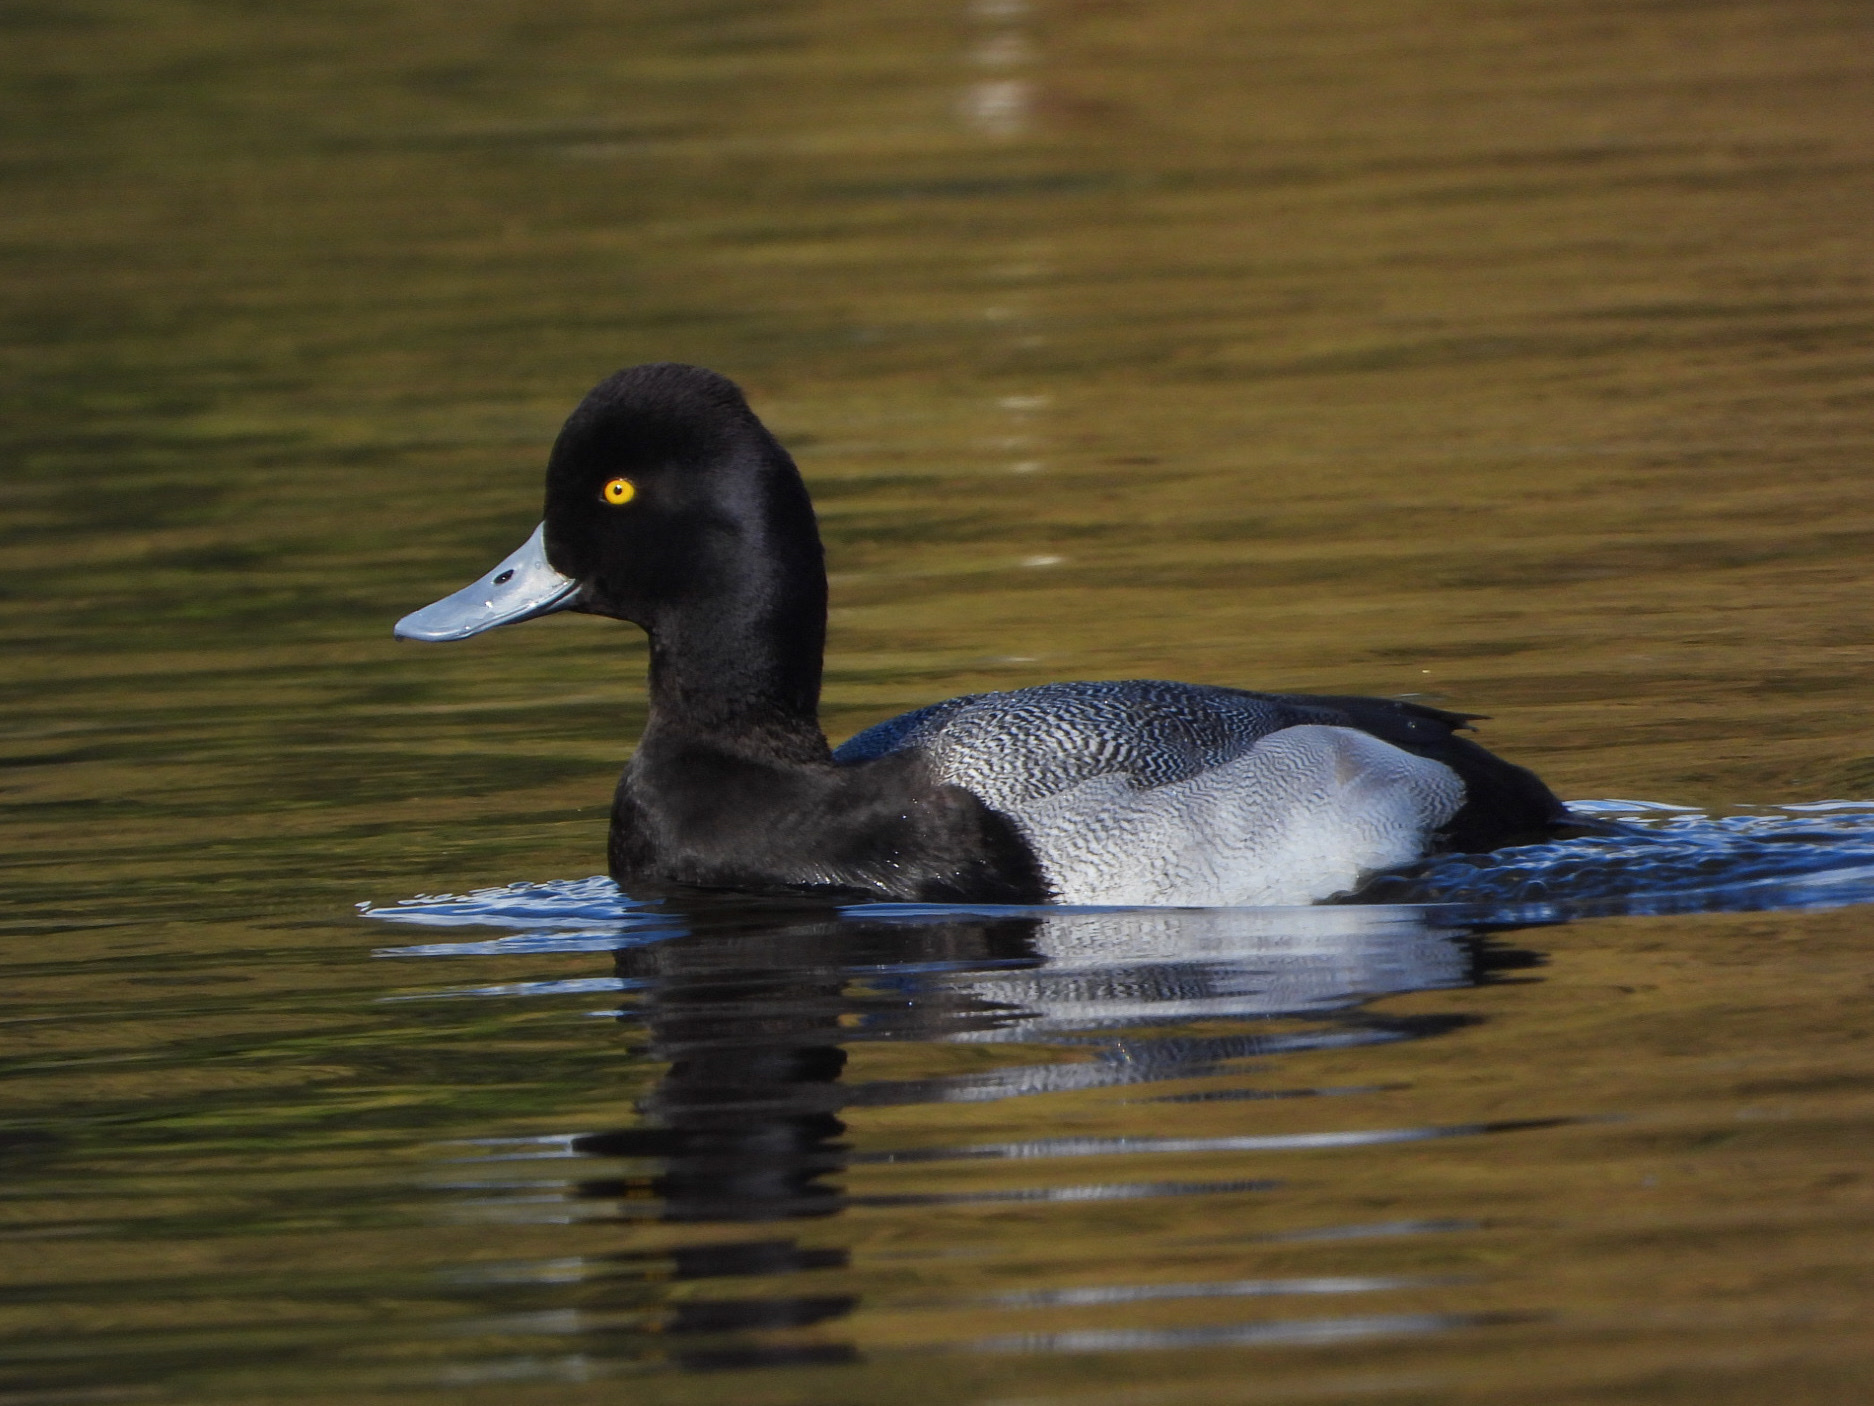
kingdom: Animalia
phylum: Chordata
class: Aves
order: Anseriformes
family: Anatidae
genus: Aythya
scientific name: Aythya affinis
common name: Lesser scaup
